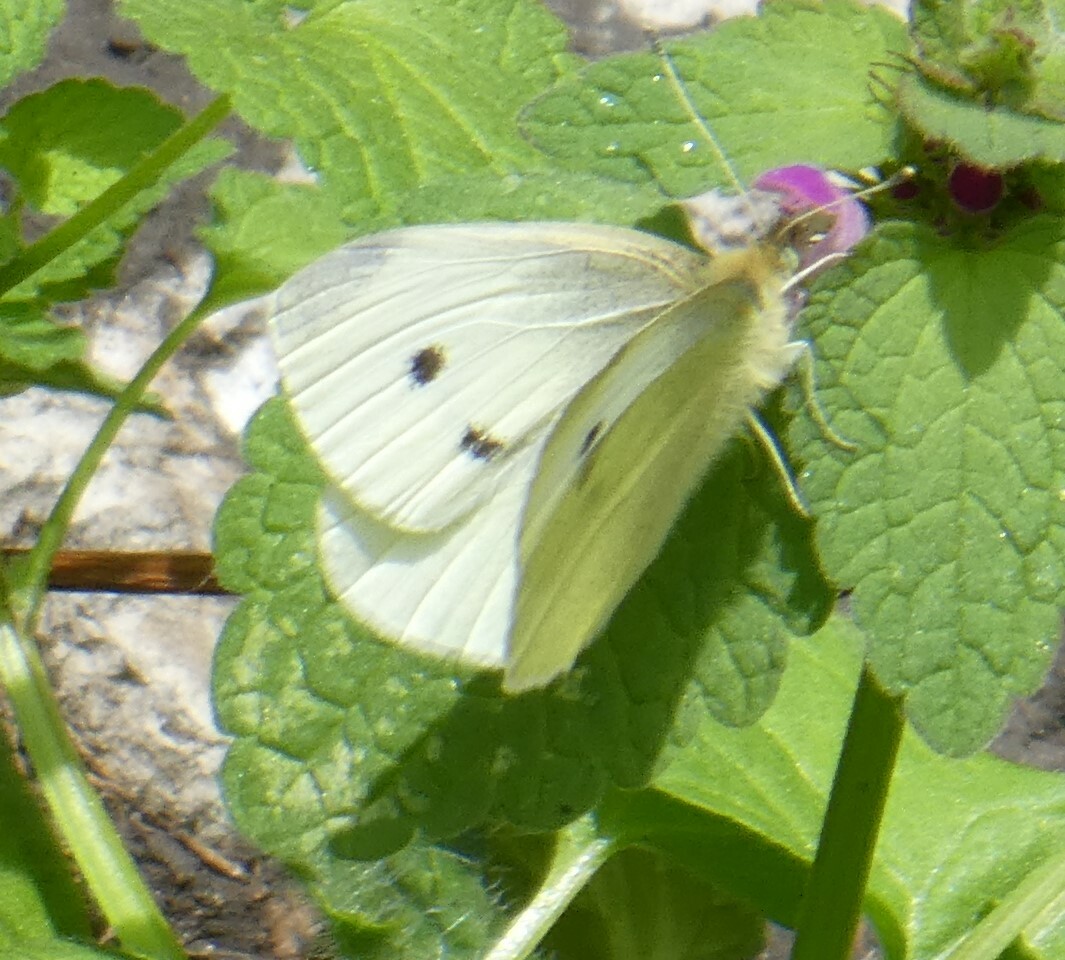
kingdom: Animalia
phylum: Arthropoda
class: Insecta
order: Lepidoptera
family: Pieridae
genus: Pieris
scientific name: Pieris rapae
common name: Small white
